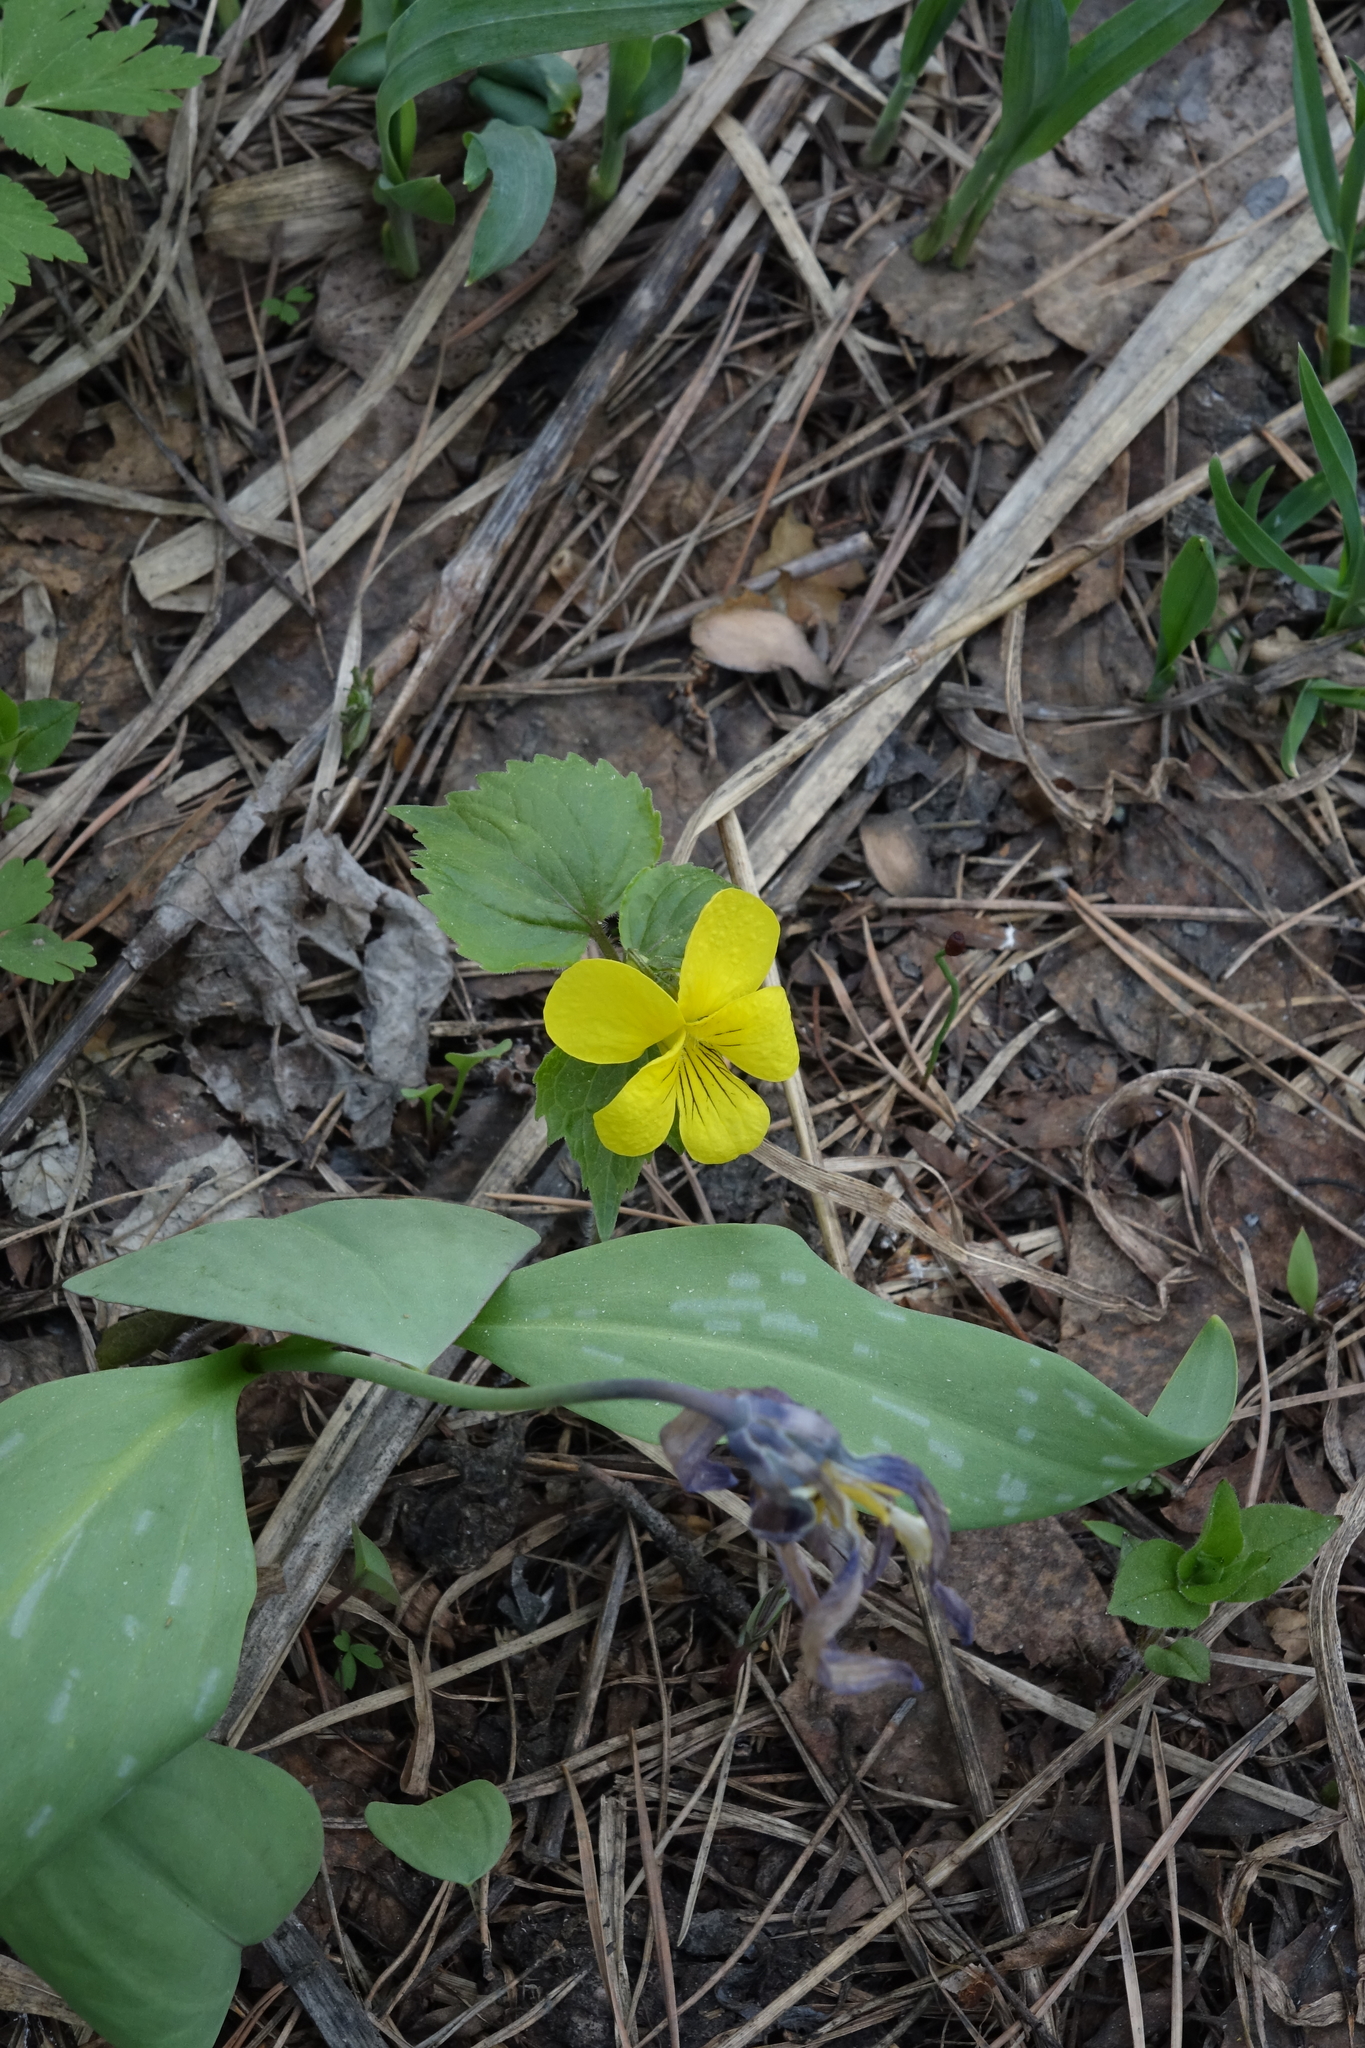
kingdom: Plantae
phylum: Tracheophyta
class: Liliopsida
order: Liliales
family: Liliaceae
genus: Erythronium
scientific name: Erythronium sibiricum
